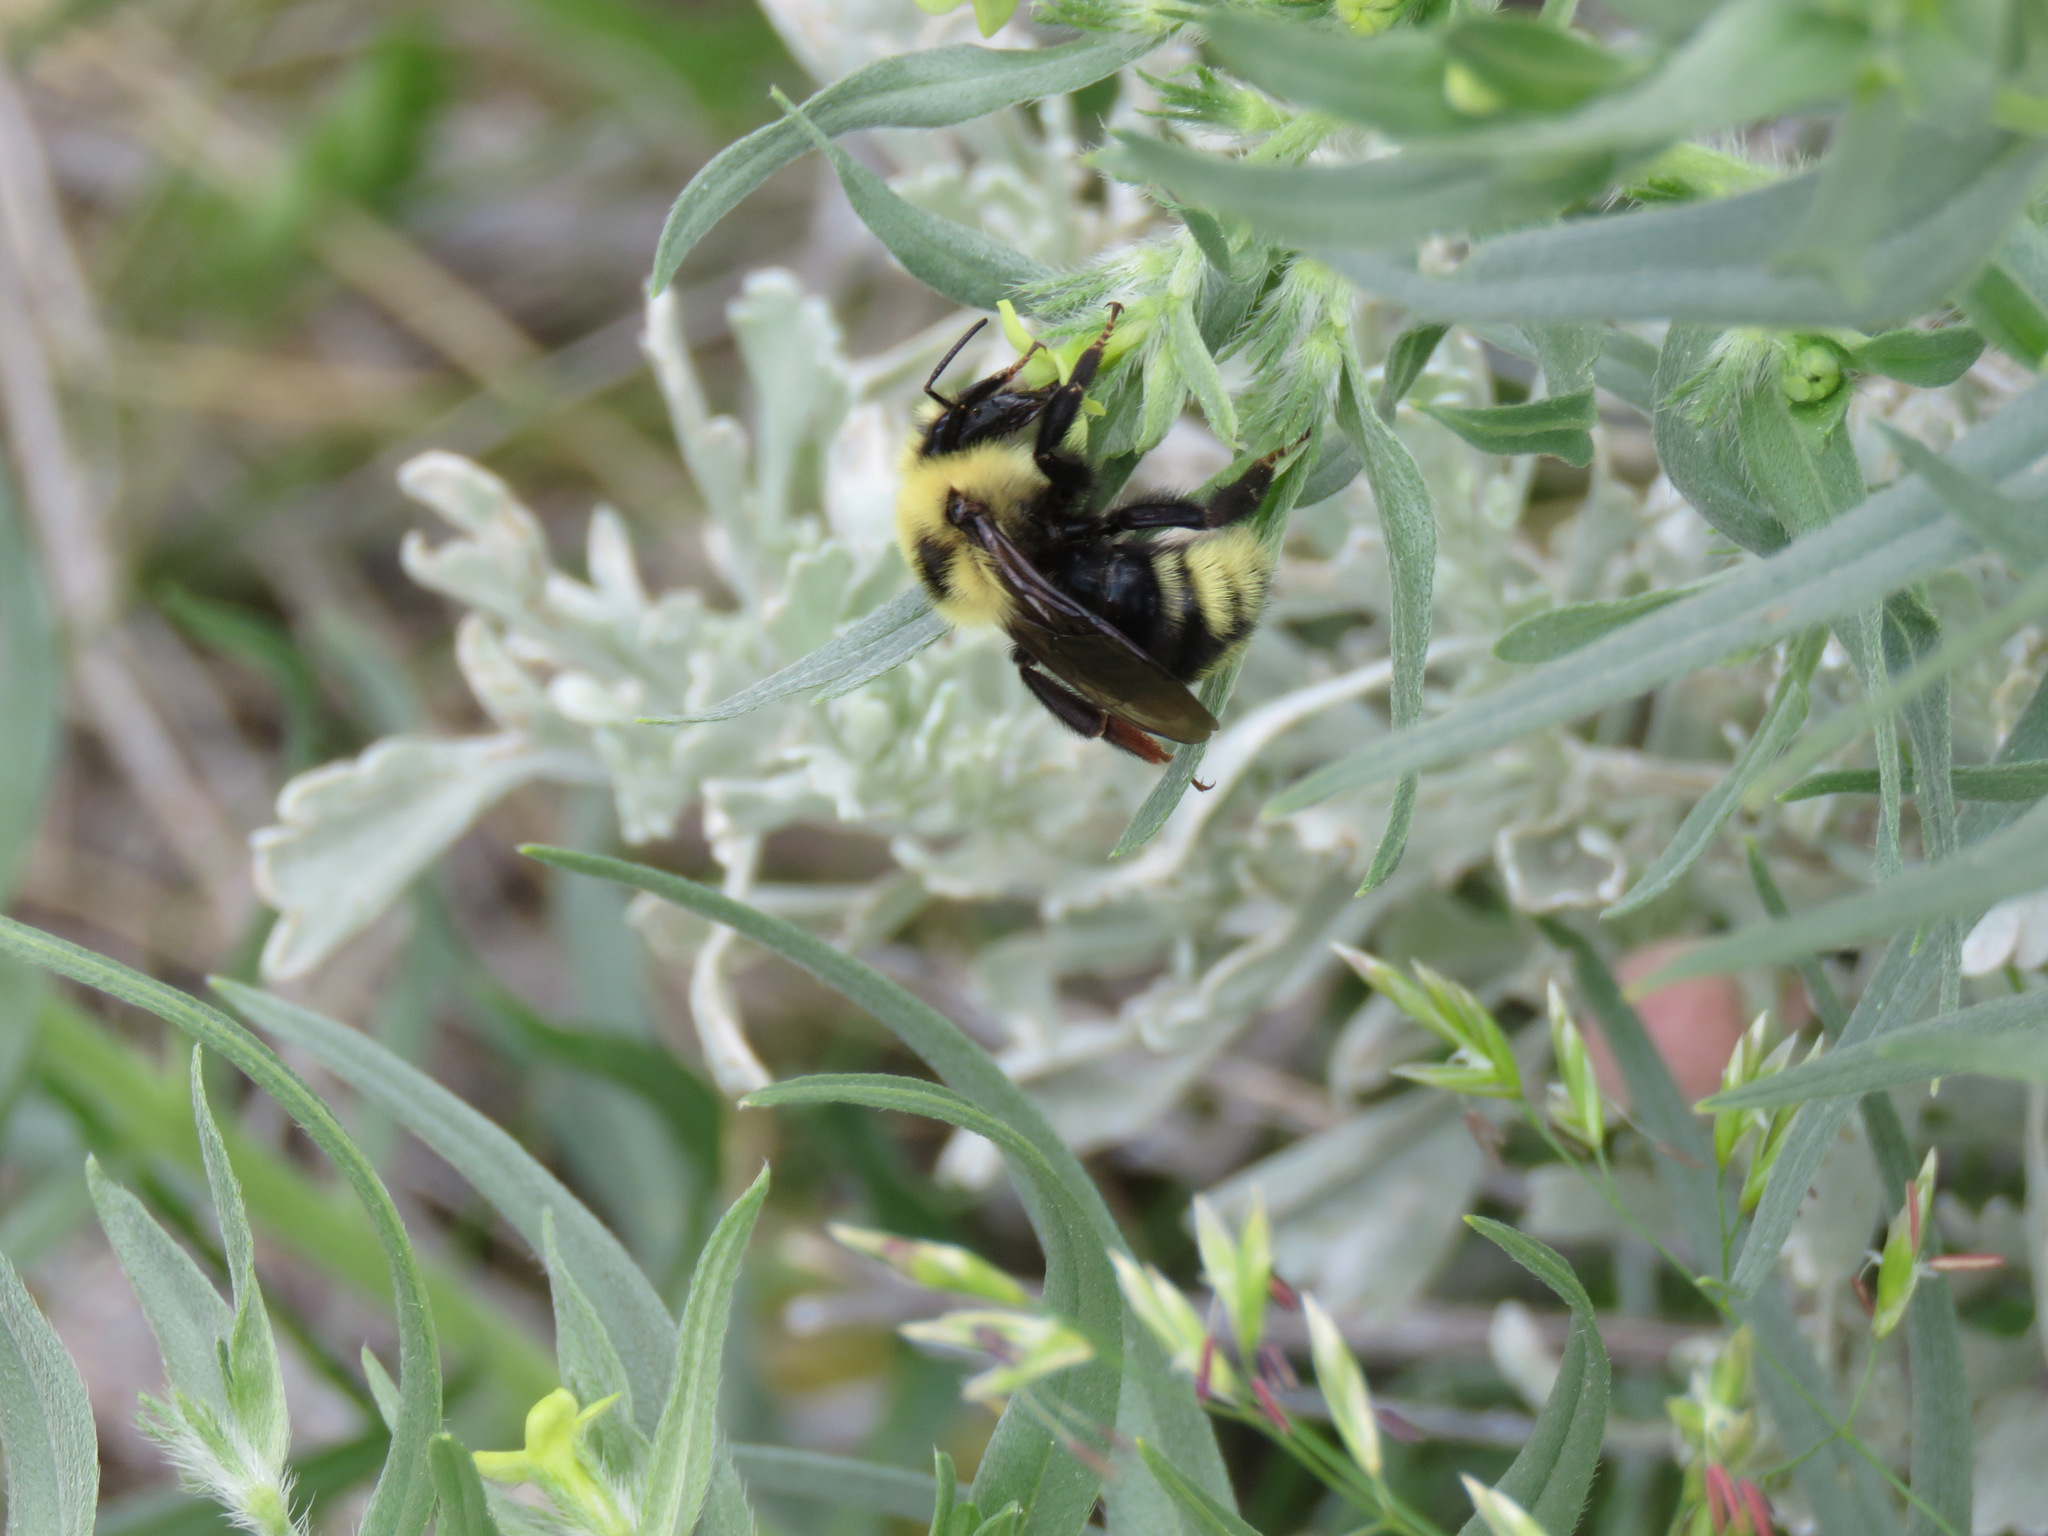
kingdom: Animalia
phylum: Arthropoda
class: Insecta
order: Hymenoptera
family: Apidae
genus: Bombus
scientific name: Bombus insularis
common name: Indiscriminate cuckoo bumble bee
